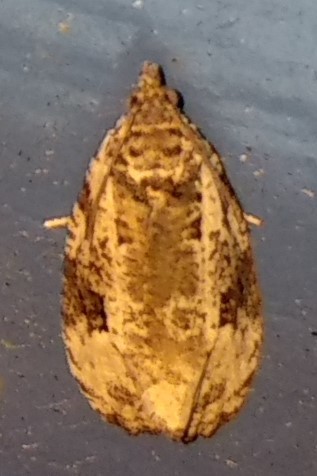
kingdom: Animalia
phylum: Arthropoda
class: Insecta
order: Lepidoptera
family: Tortricidae
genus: Apotomis
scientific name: Apotomis albeolana
